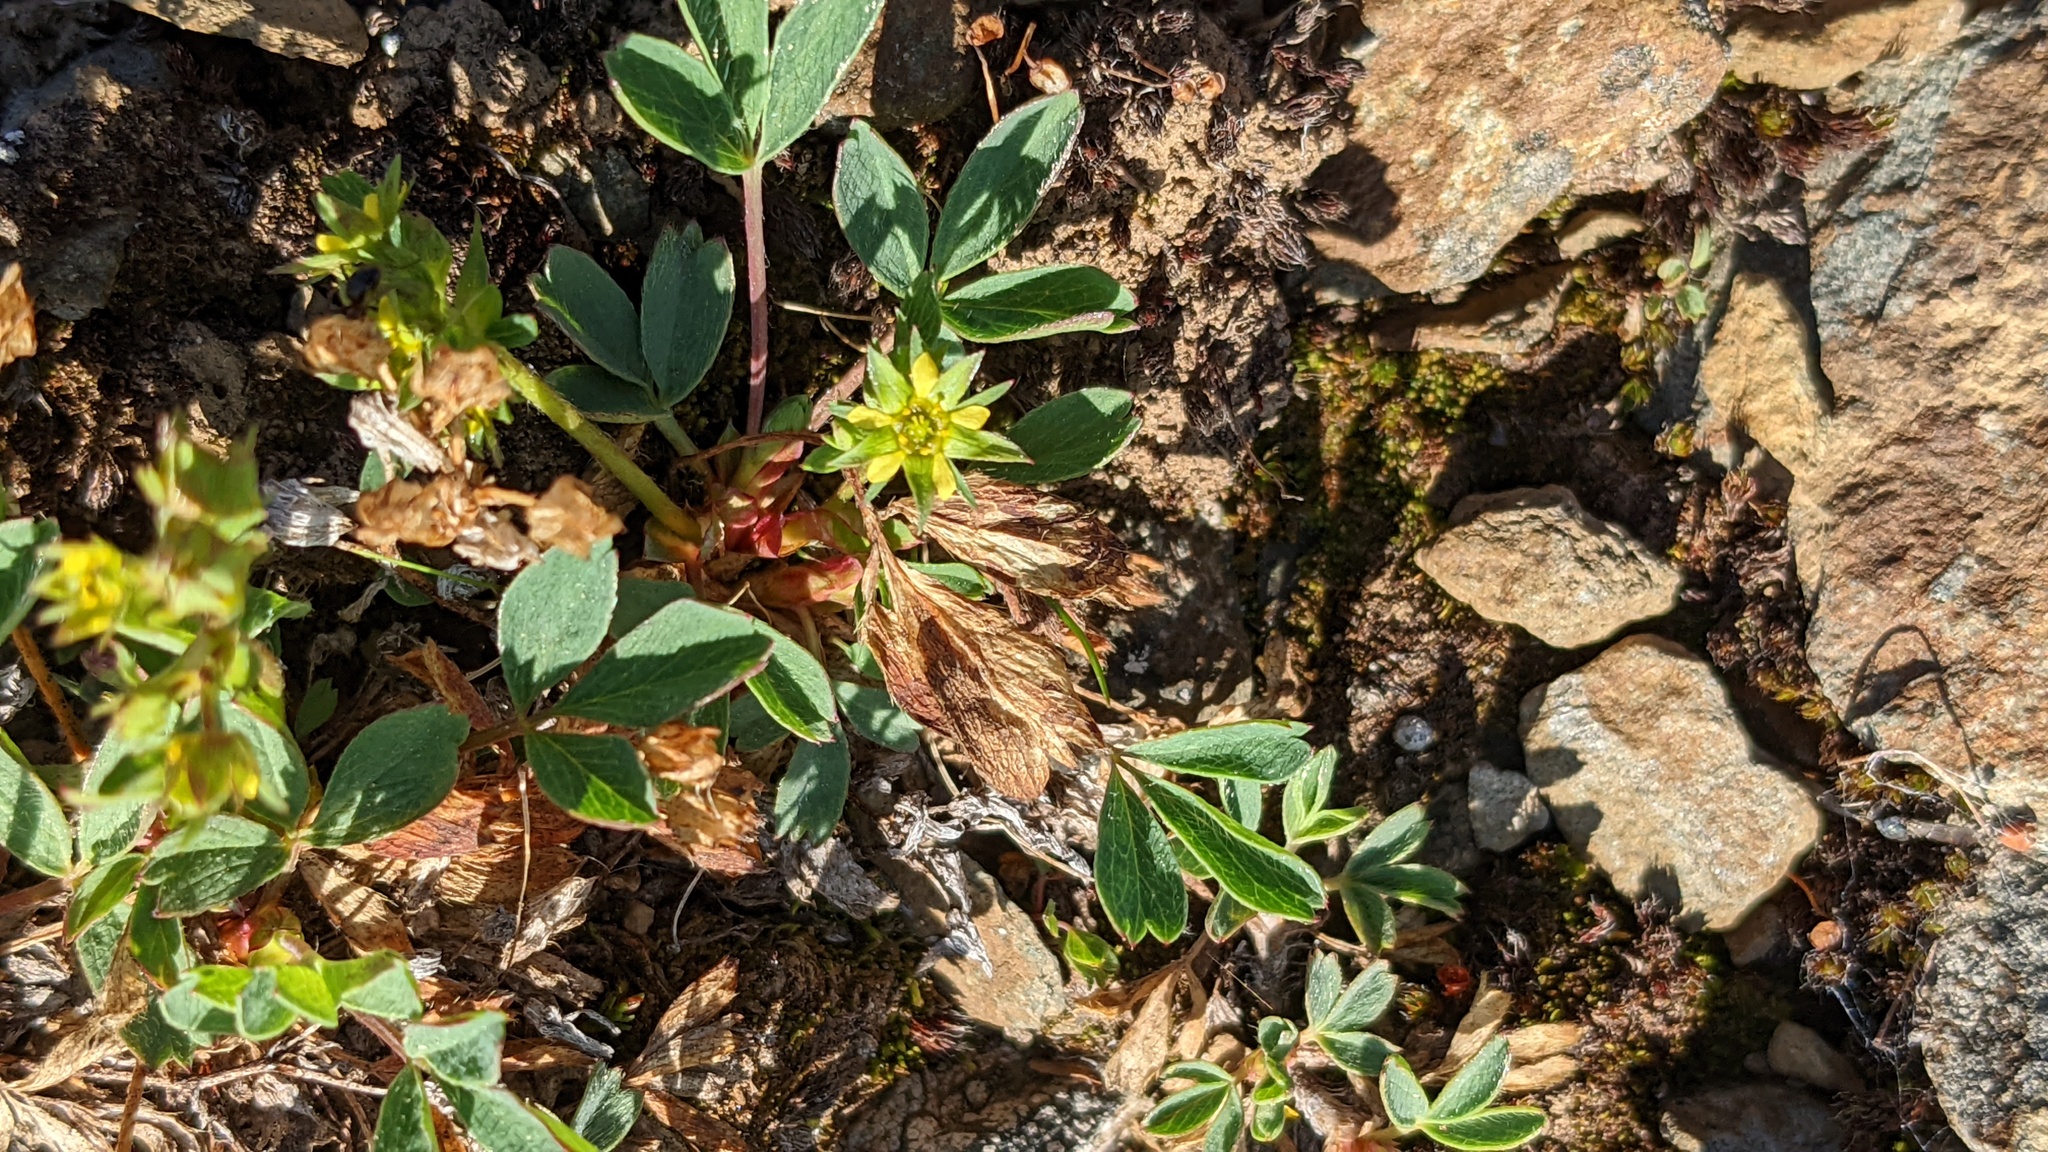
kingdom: Plantae
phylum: Tracheophyta
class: Magnoliopsida
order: Rosales
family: Rosaceae
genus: Sibbaldia
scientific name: Sibbaldia procumbens
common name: Creeping sibbaldia
